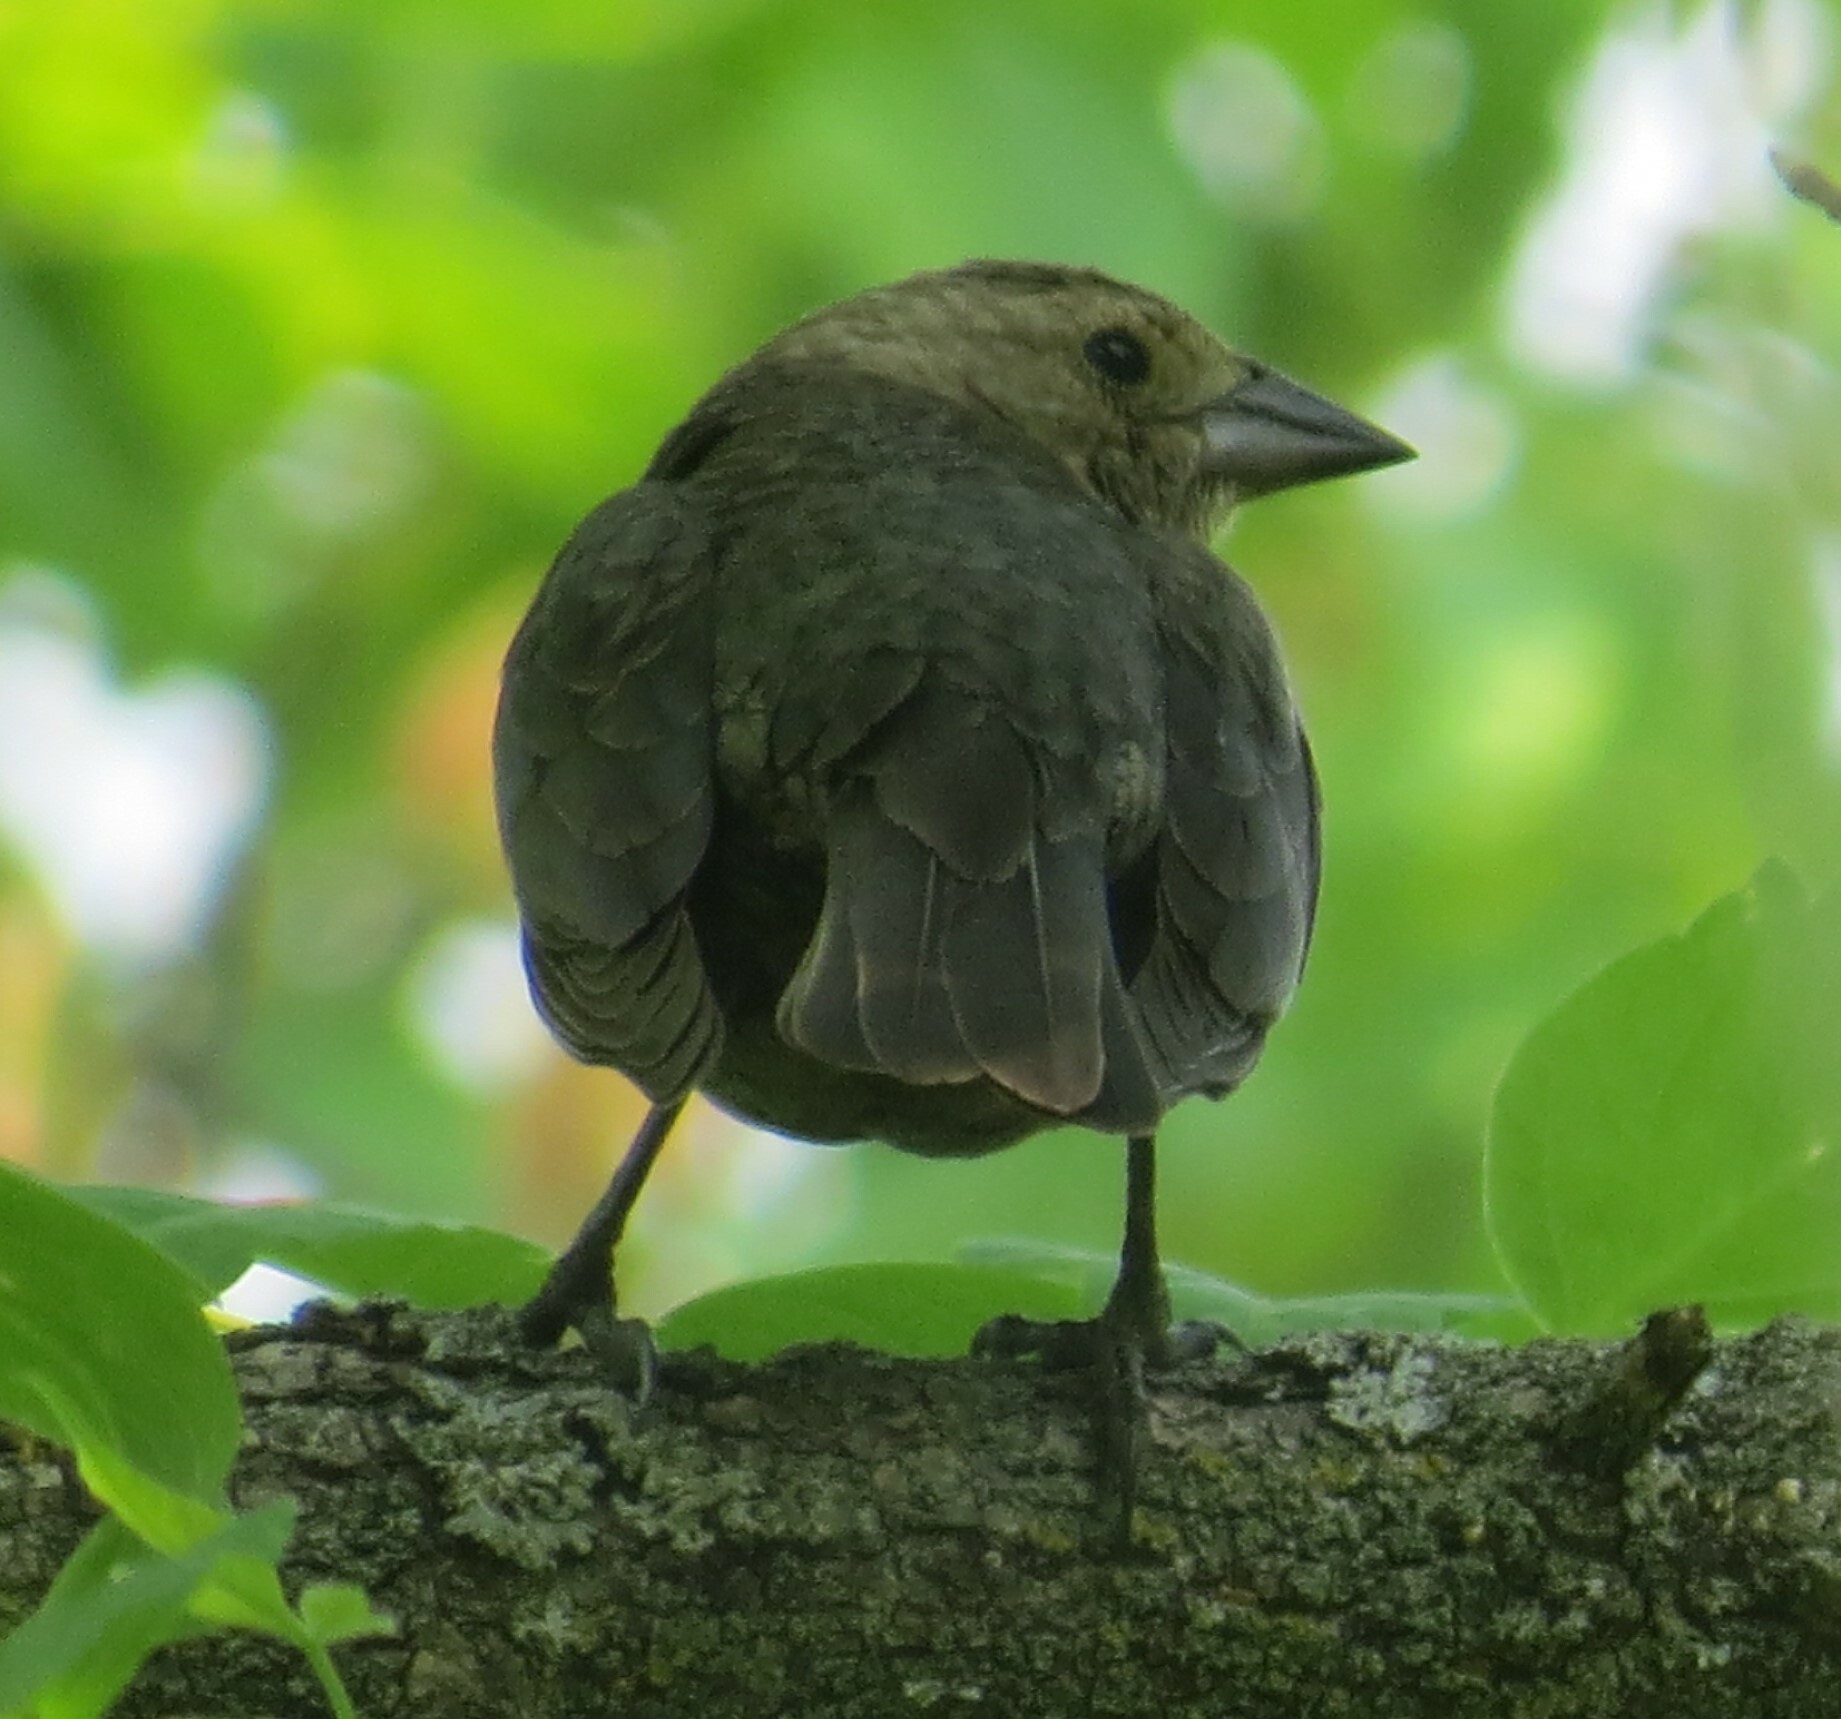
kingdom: Animalia
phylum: Chordata
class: Aves
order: Passeriformes
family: Icteridae
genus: Molothrus
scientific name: Molothrus ater
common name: Brown-headed cowbird
